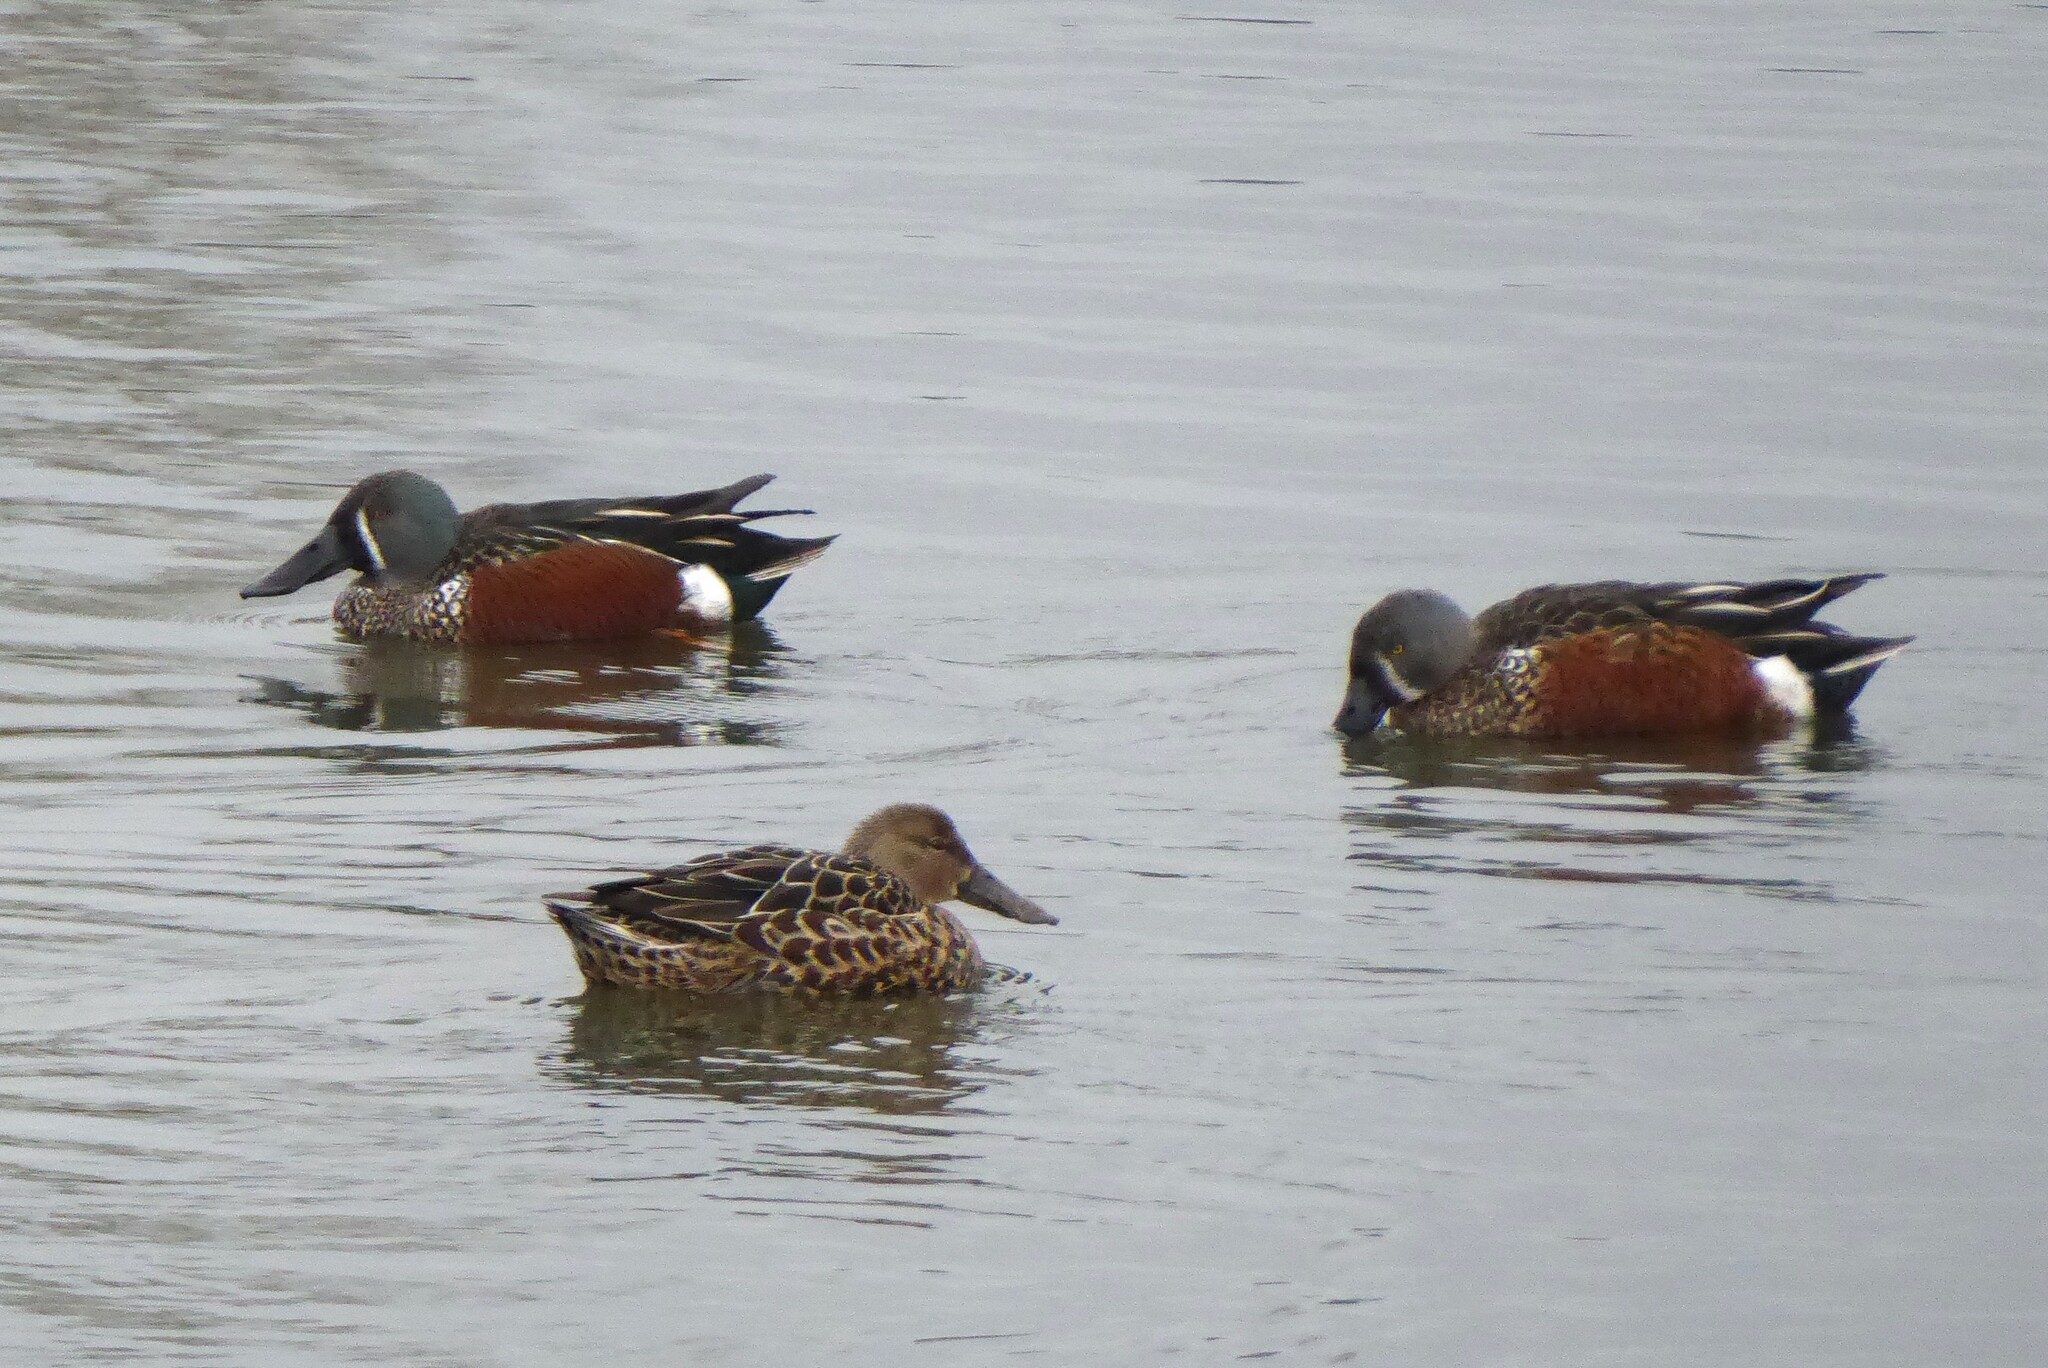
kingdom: Animalia
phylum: Chordata
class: Aves
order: Anseriformes
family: Anatidae
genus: Spatula
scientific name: Spatula rhynchotis
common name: Australian shoveler
